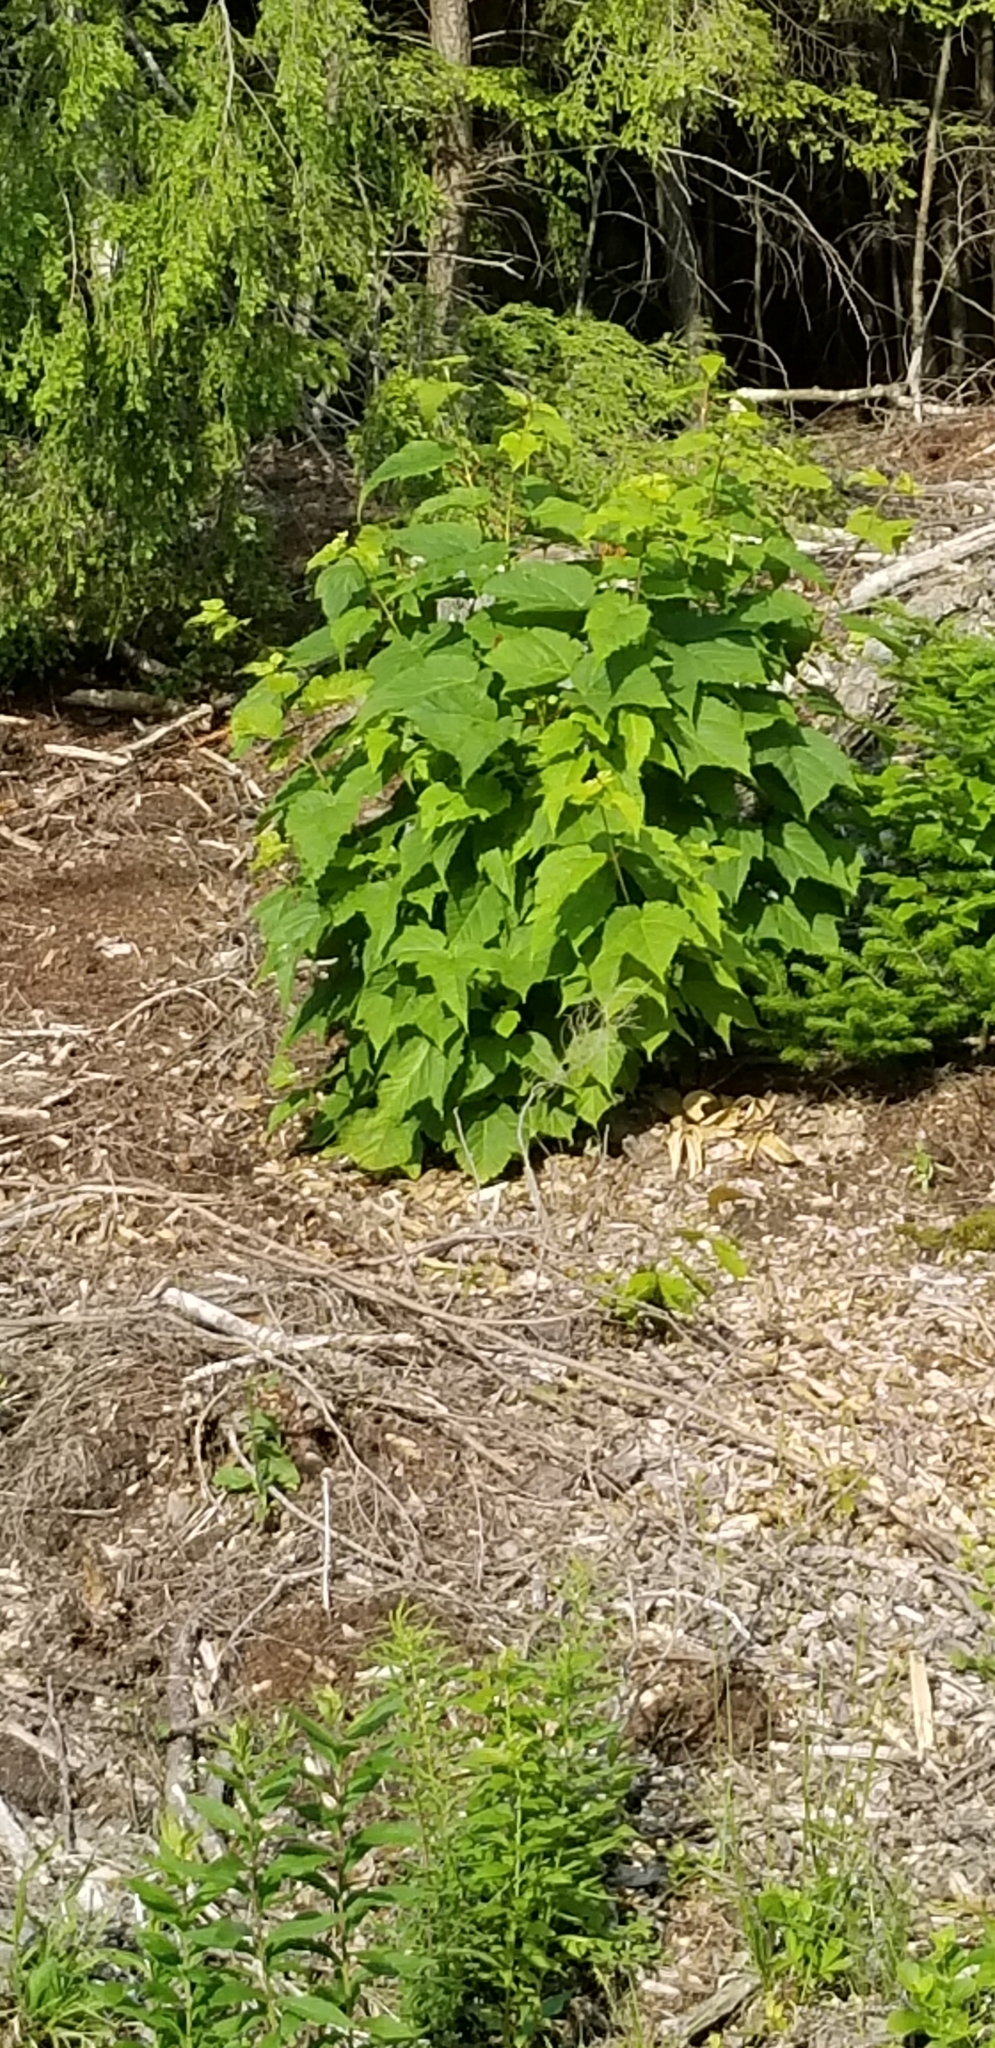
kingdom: Plantae
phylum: Tracheophyta
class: Magnoliopsida
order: Sapindales
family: Sapindaceae
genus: Acer
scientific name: Acer pensylvanicum
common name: Moosewood
